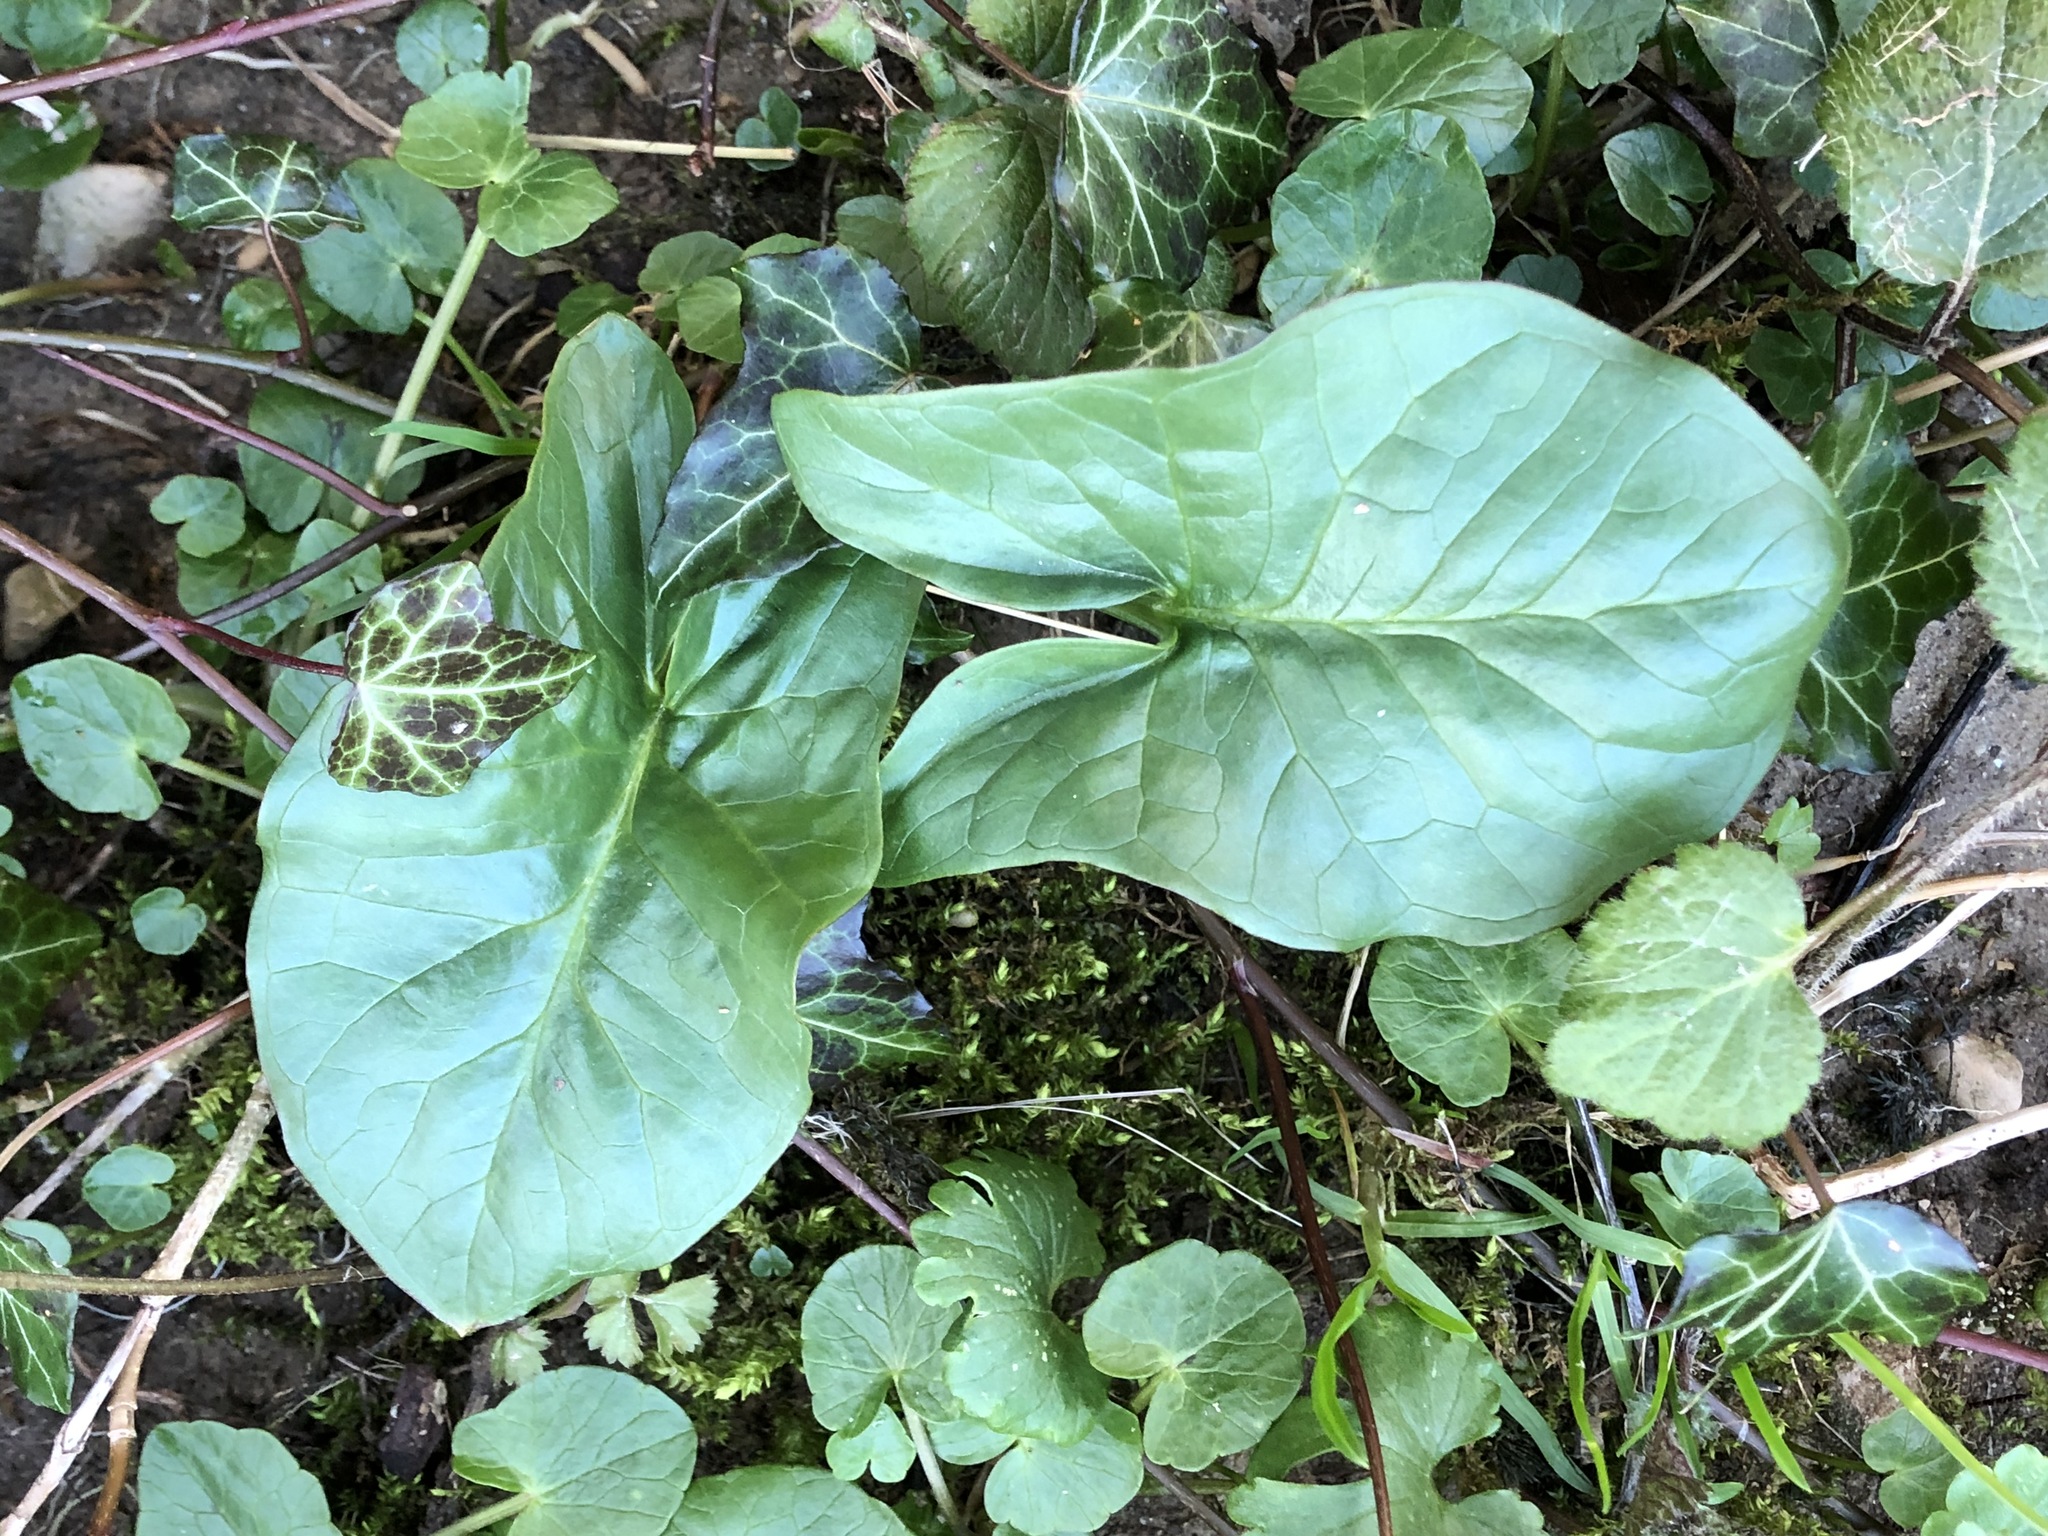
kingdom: Plantae
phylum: Tracheophyta
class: Liliopsida
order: Alismatales
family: Araceae
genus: Arum
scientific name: Arum maculatum
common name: Lords-and-ladies
